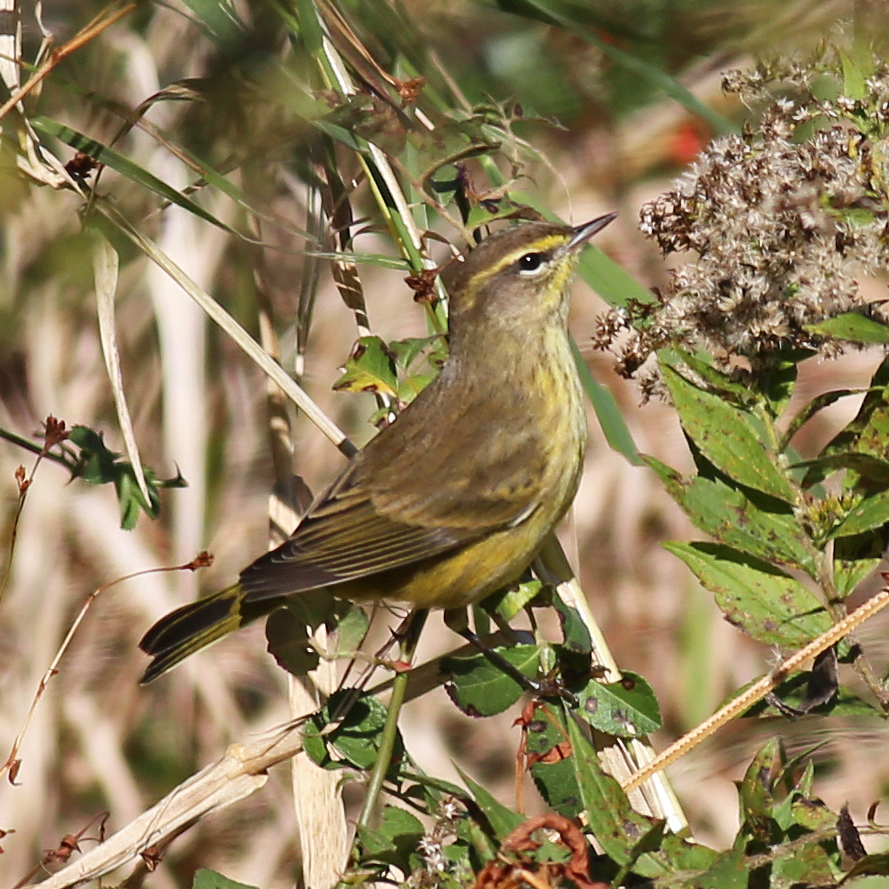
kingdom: Animalia
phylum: Chordata
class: Aves
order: Passeriformes
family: Parulidae
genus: Setophaga
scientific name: Setophaga palmarum
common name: Palm warbler
